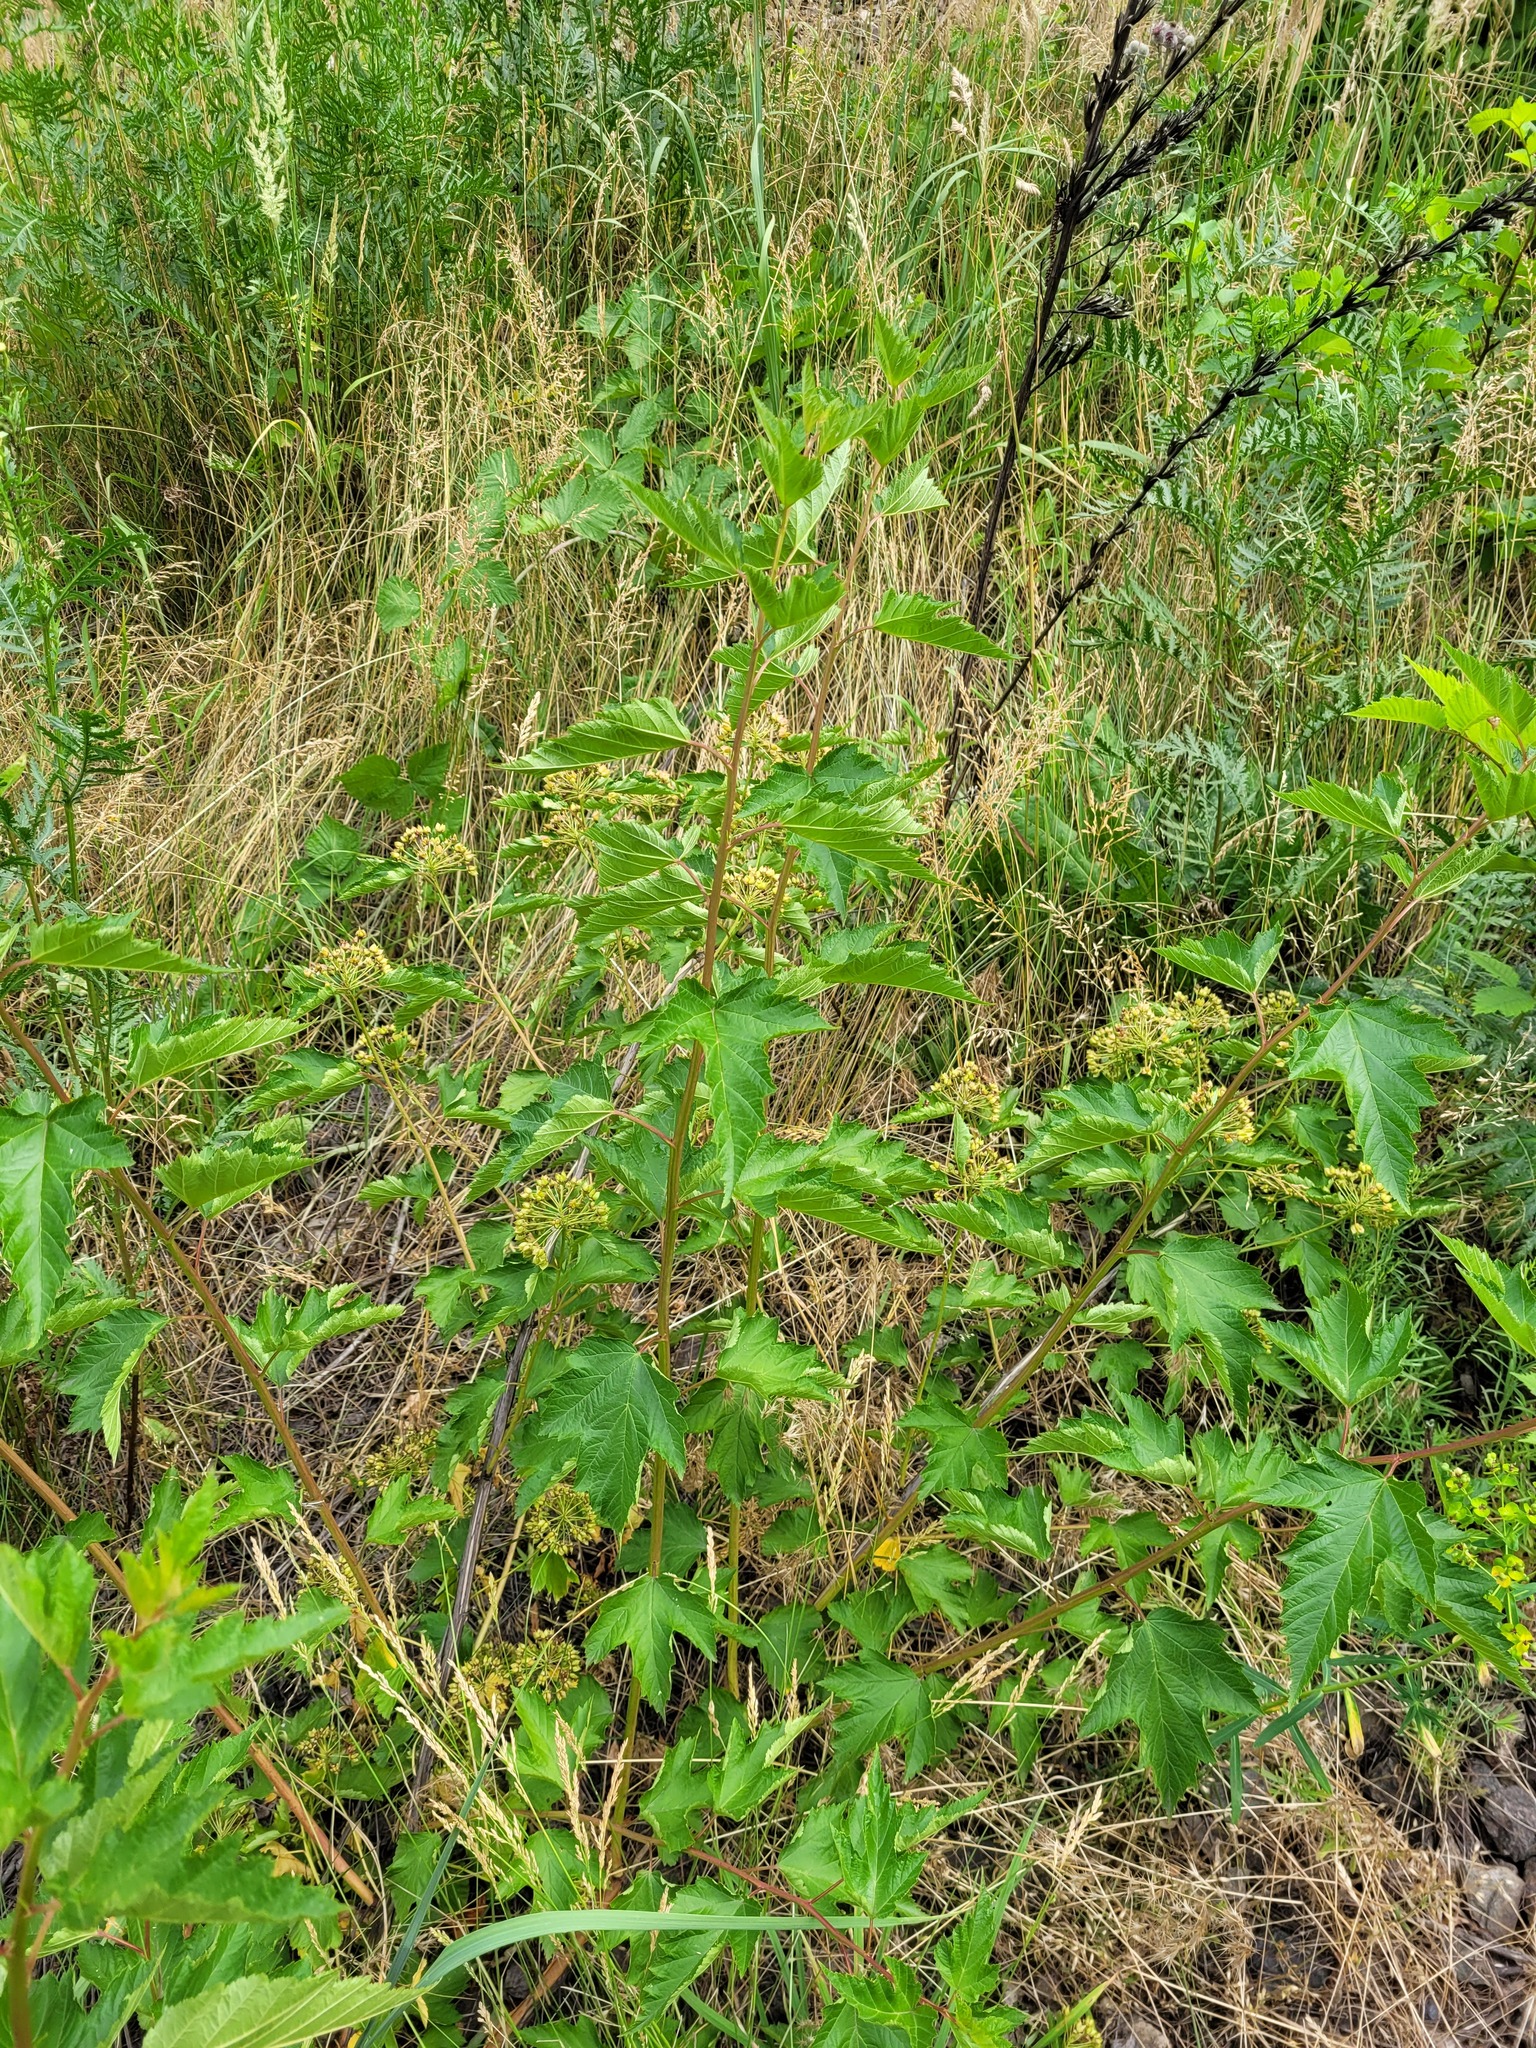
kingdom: Plantae
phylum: Tracheophyta
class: Magnoliopsida
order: Rosales
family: Rosaceae
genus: Physocarpus
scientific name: Physocarpus opulifolius
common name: Ninebark
